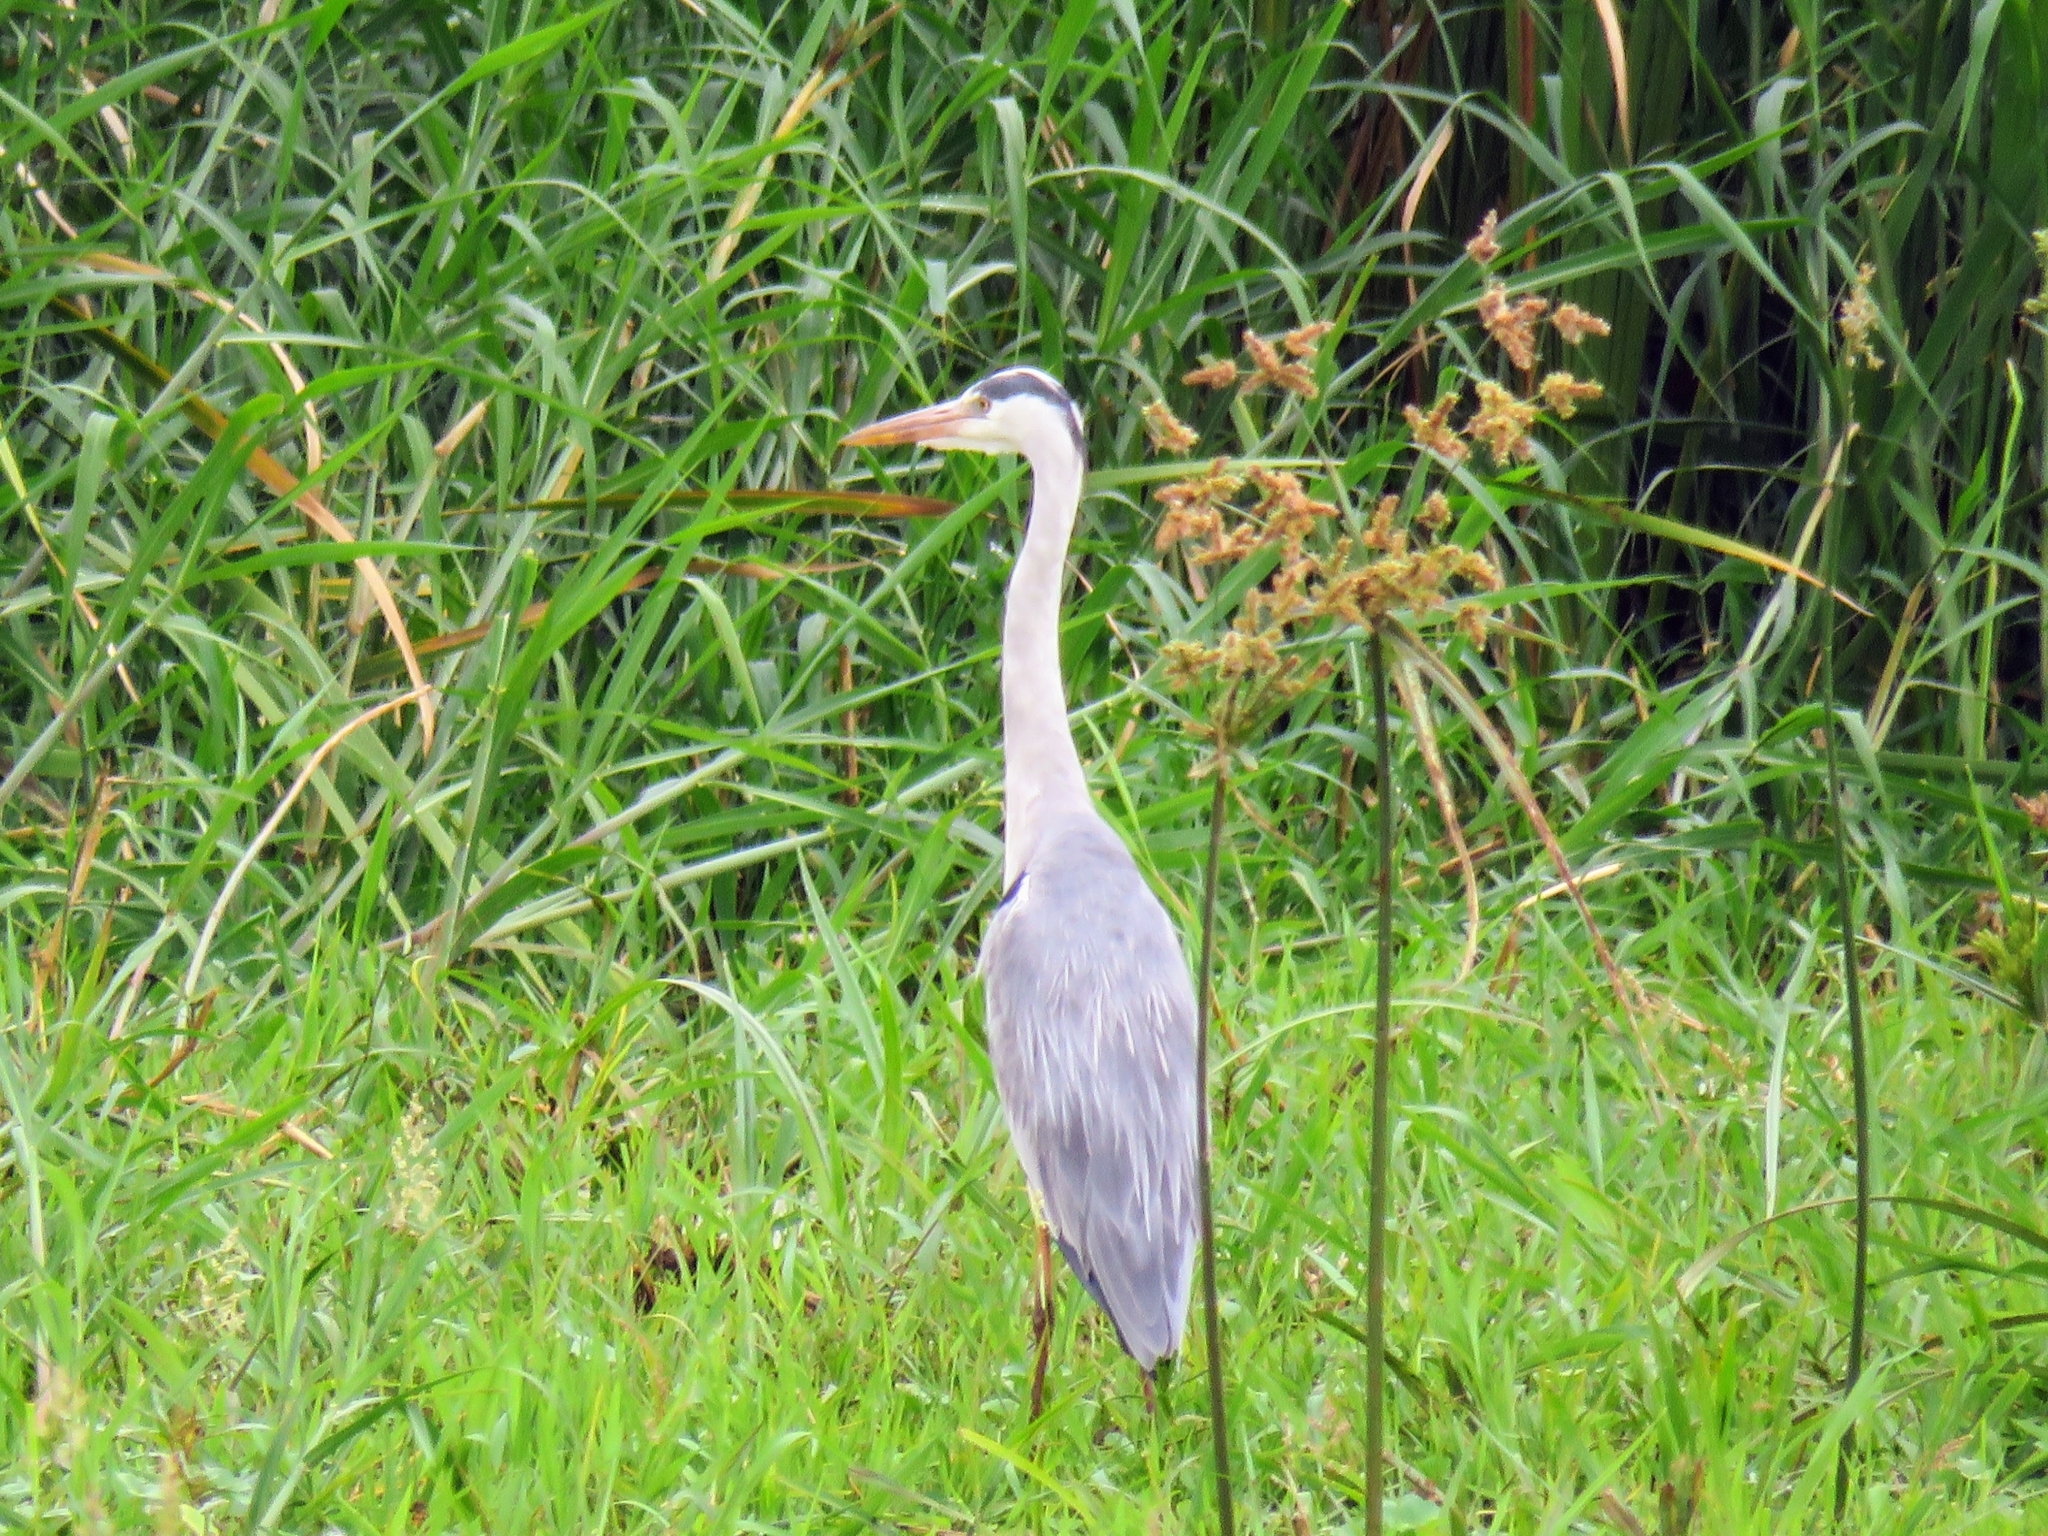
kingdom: Animalia
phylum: Chordata
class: Aves
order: Pelecaniformes
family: Ardeidae
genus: Ardea
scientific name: Ardea cinerea
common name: Grey heron
